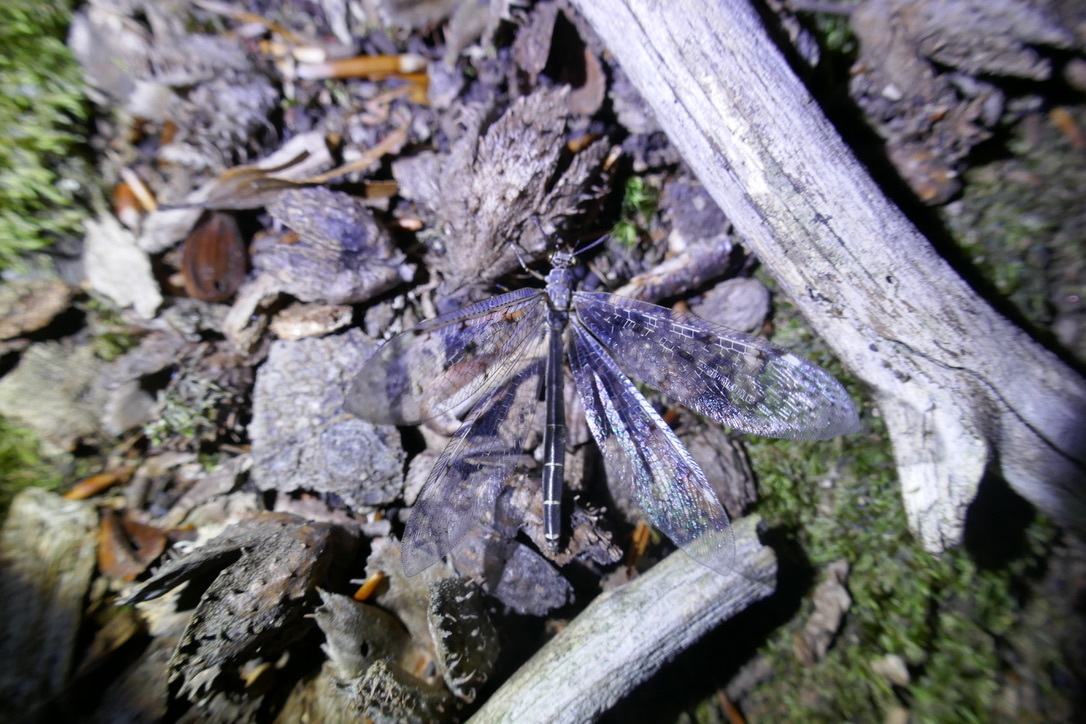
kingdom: Animalia
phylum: Arthropoda
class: Insecta
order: Neuroptera
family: Myrmeleontidae
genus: Euroleon
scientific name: Euroleon nostras
